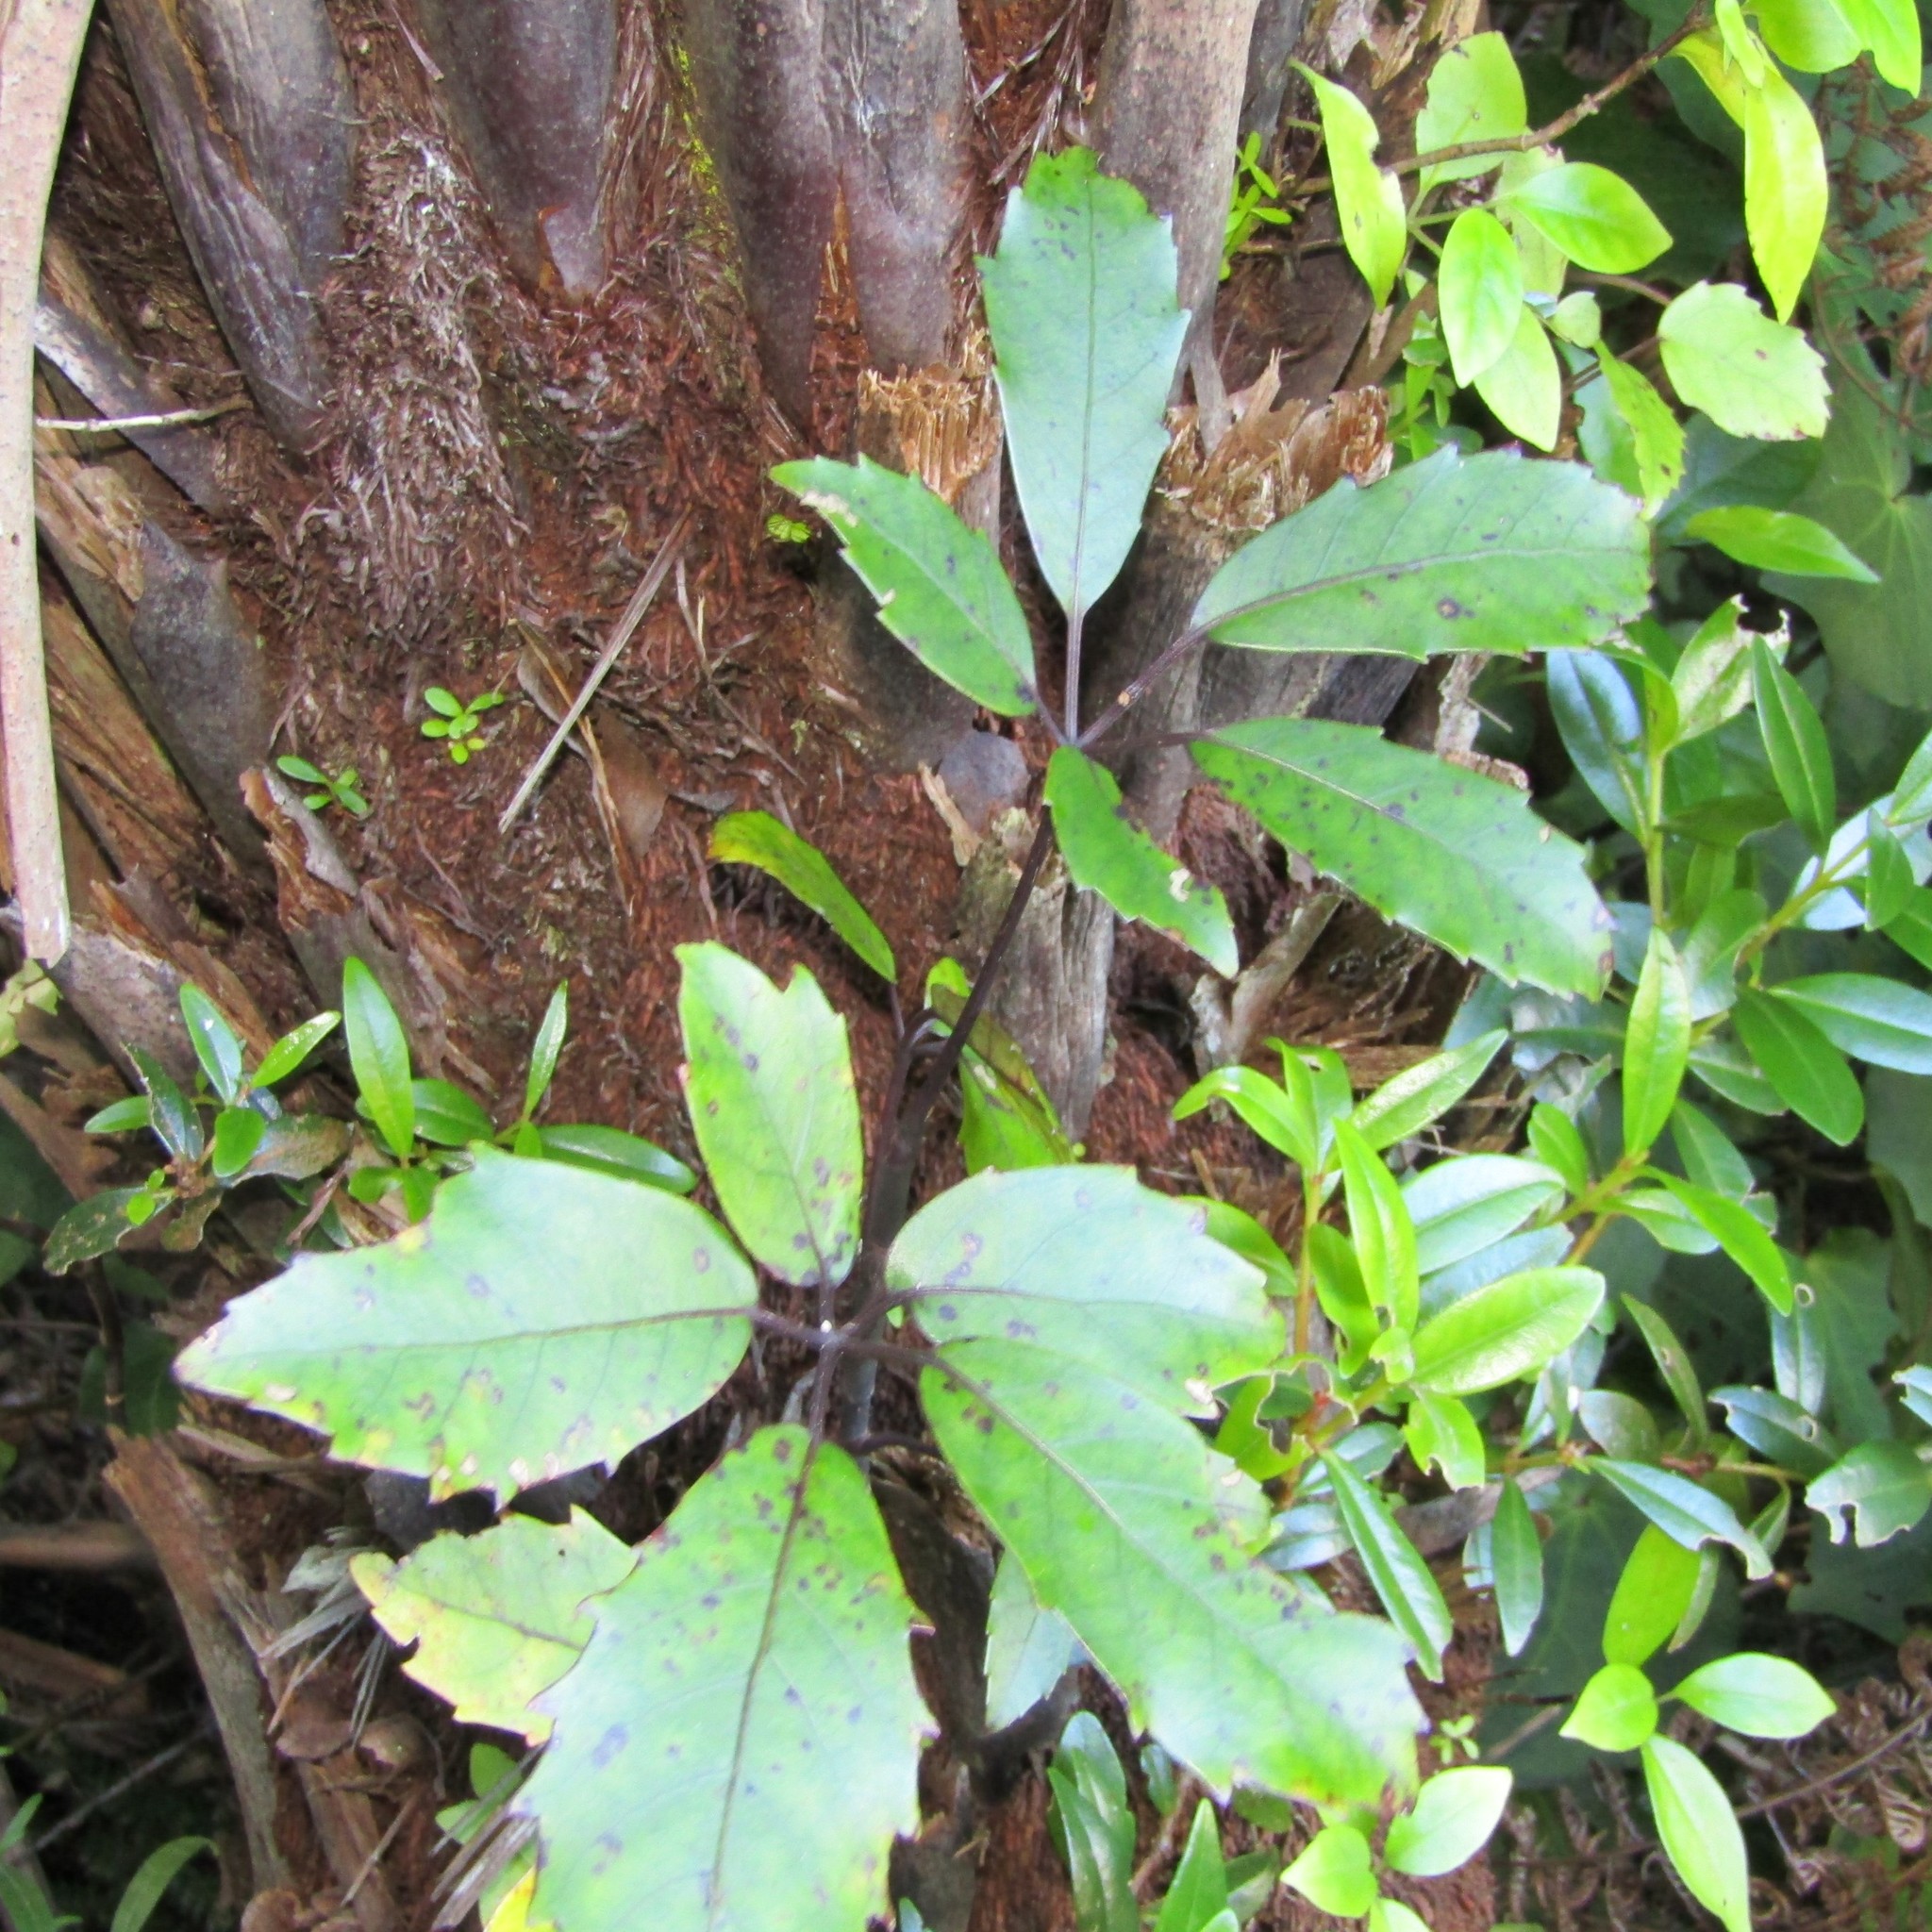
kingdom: Plantae
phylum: Tracheophyta
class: Magnoliopsida
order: Apiales
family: Araliaceae
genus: Neopanax
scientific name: Neopanax arboreus
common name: Five-fingers
